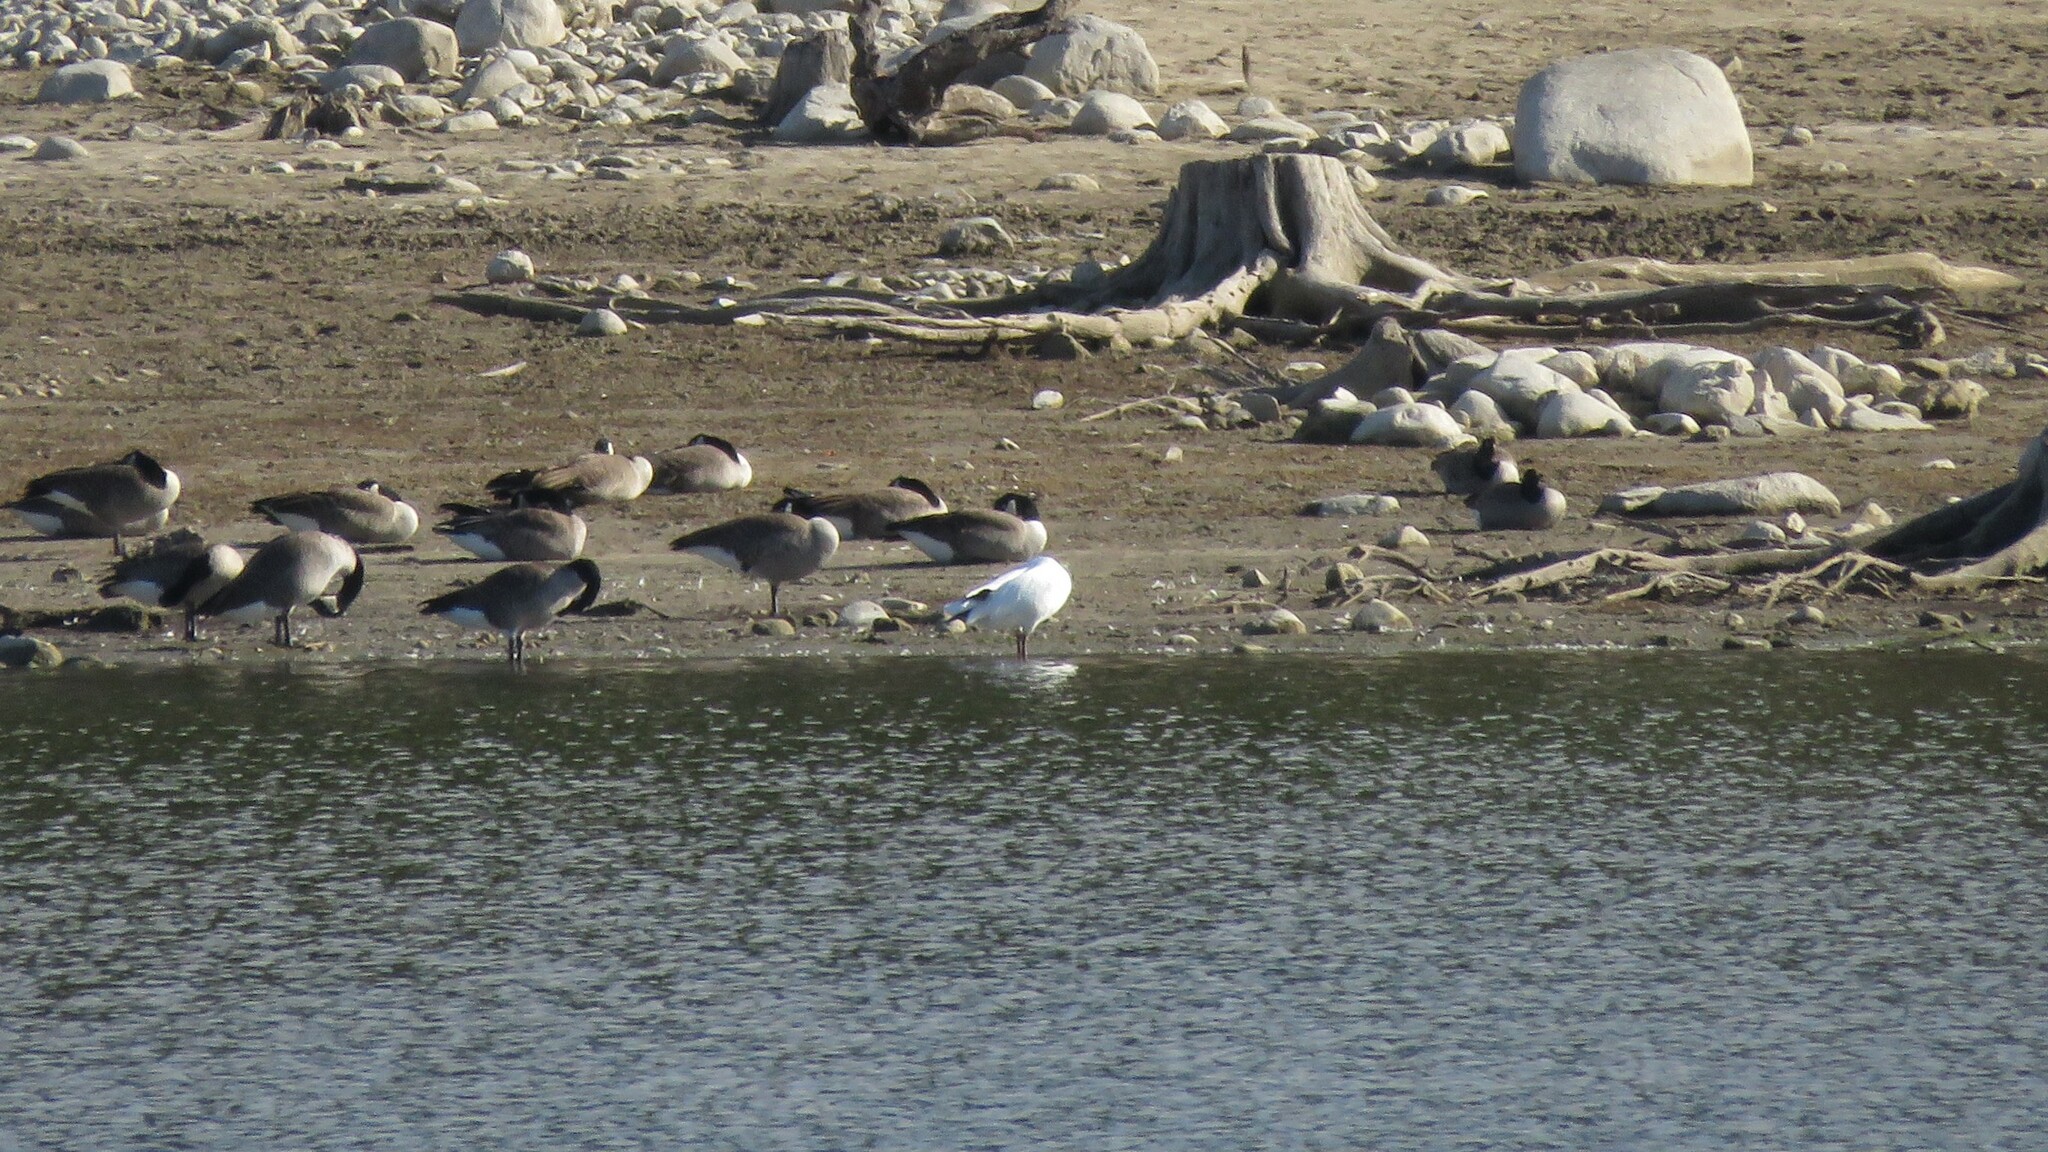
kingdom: Animalia
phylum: Chordata
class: Aves
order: Anseriformes
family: Anatidae
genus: Anser
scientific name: Anser caerulescens
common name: Snow goose
